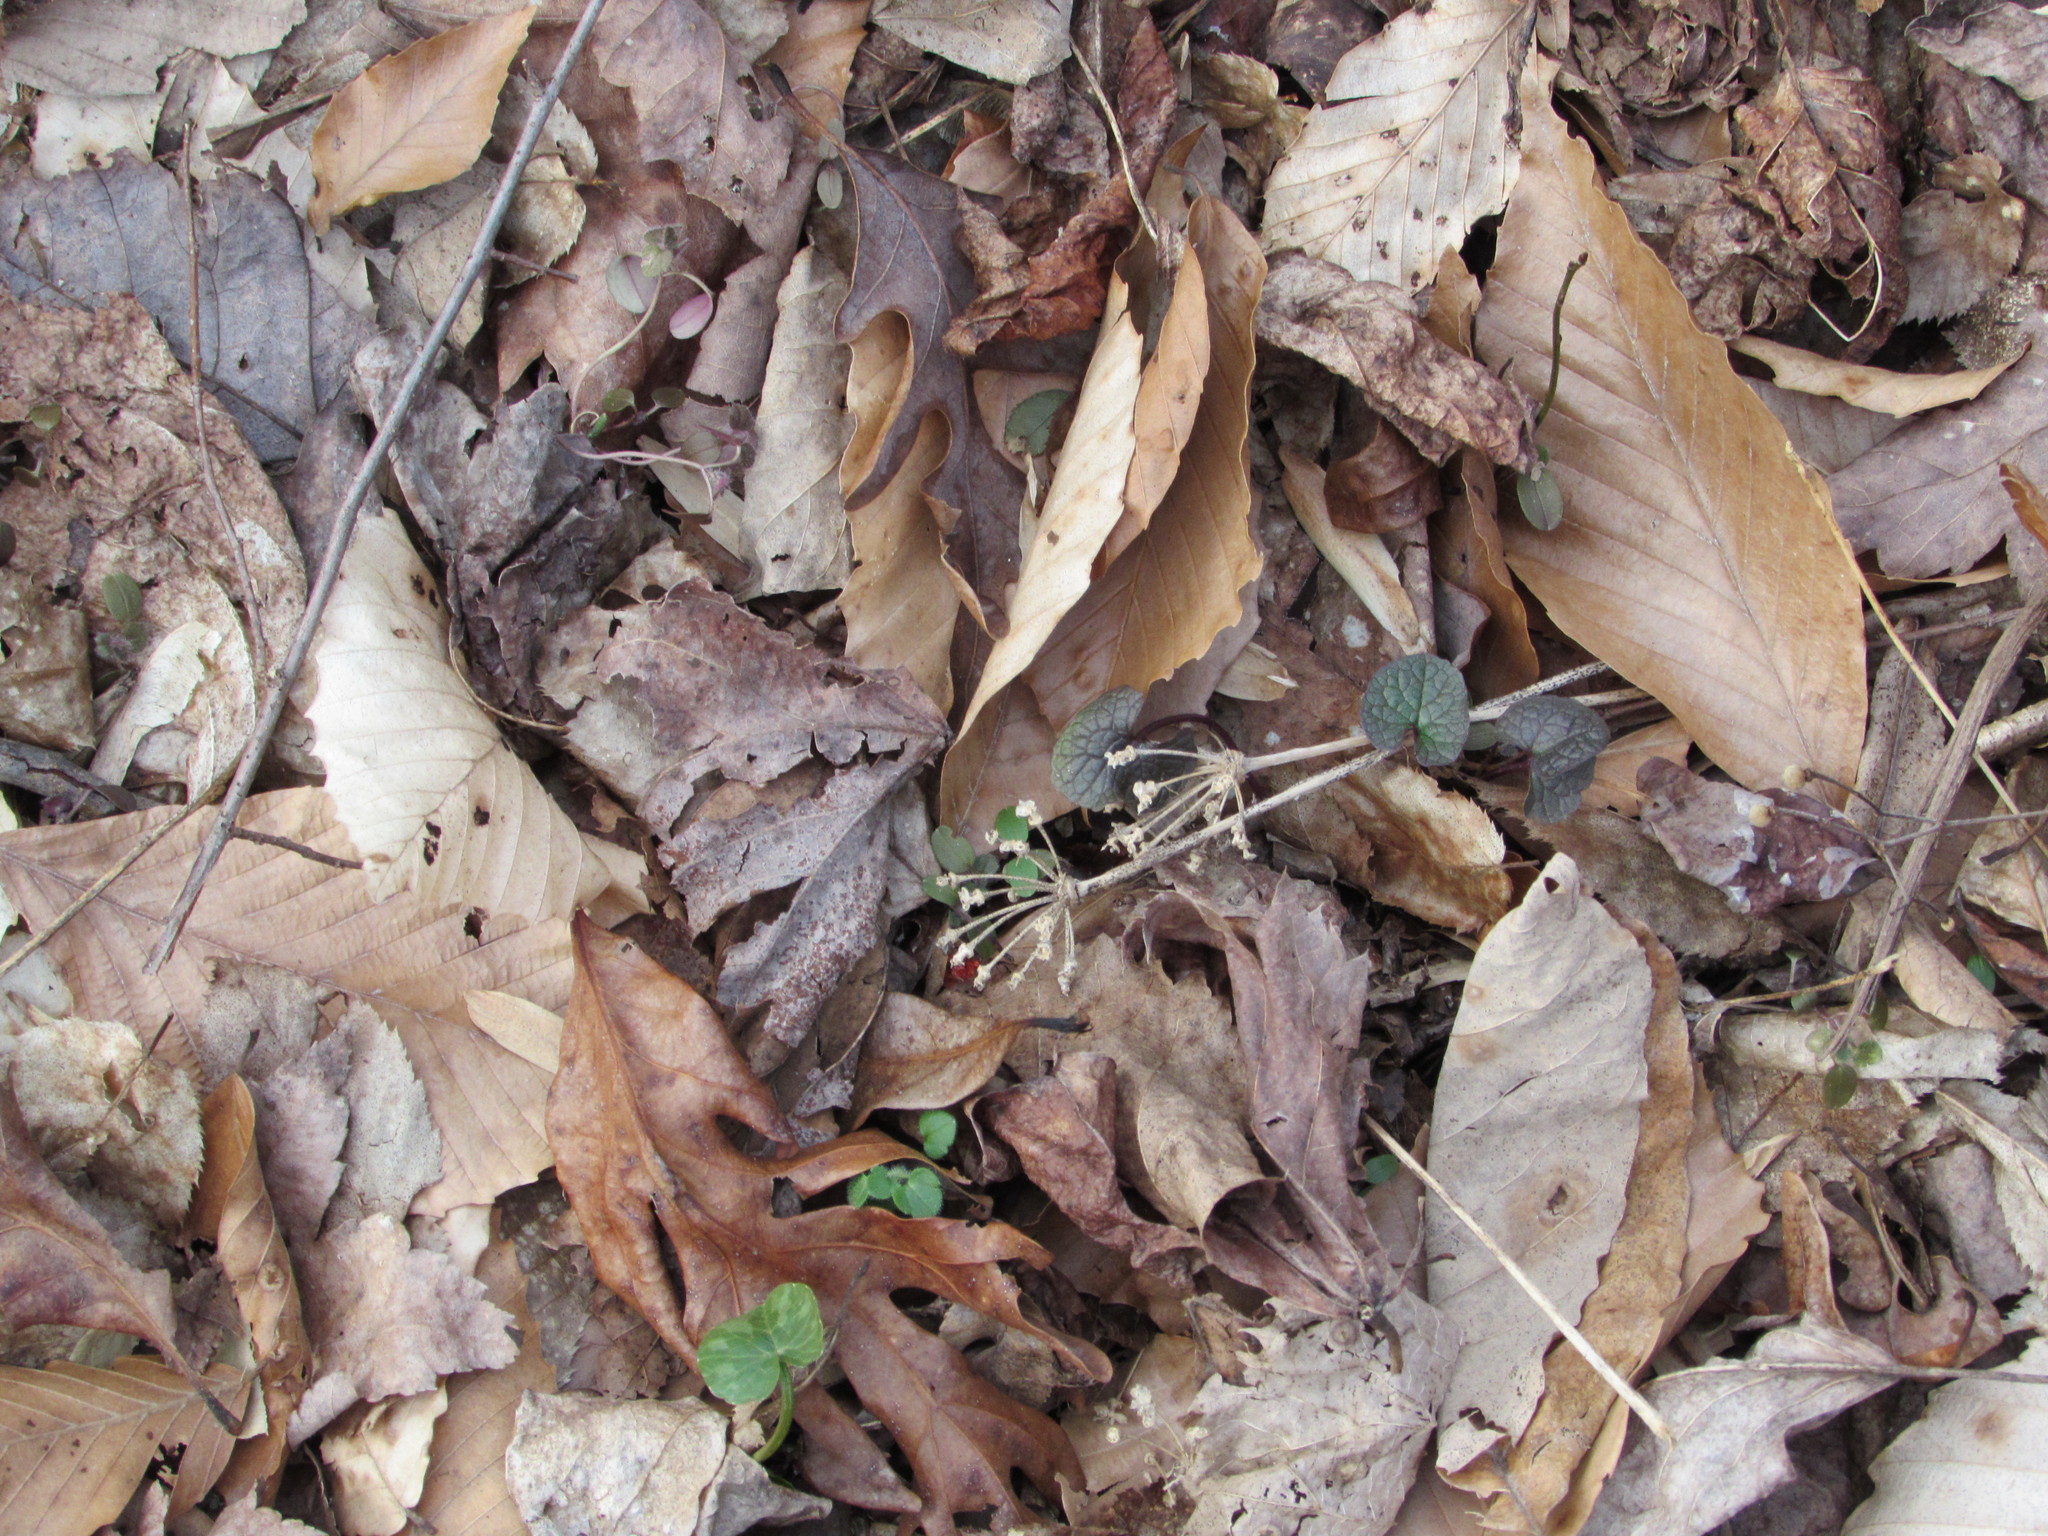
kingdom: Plantae
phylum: Tracheophyta
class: Liliopsida
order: Asparagales
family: Amaryllidaceae
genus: Allium
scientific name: Allium tricoccum
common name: Ramp
